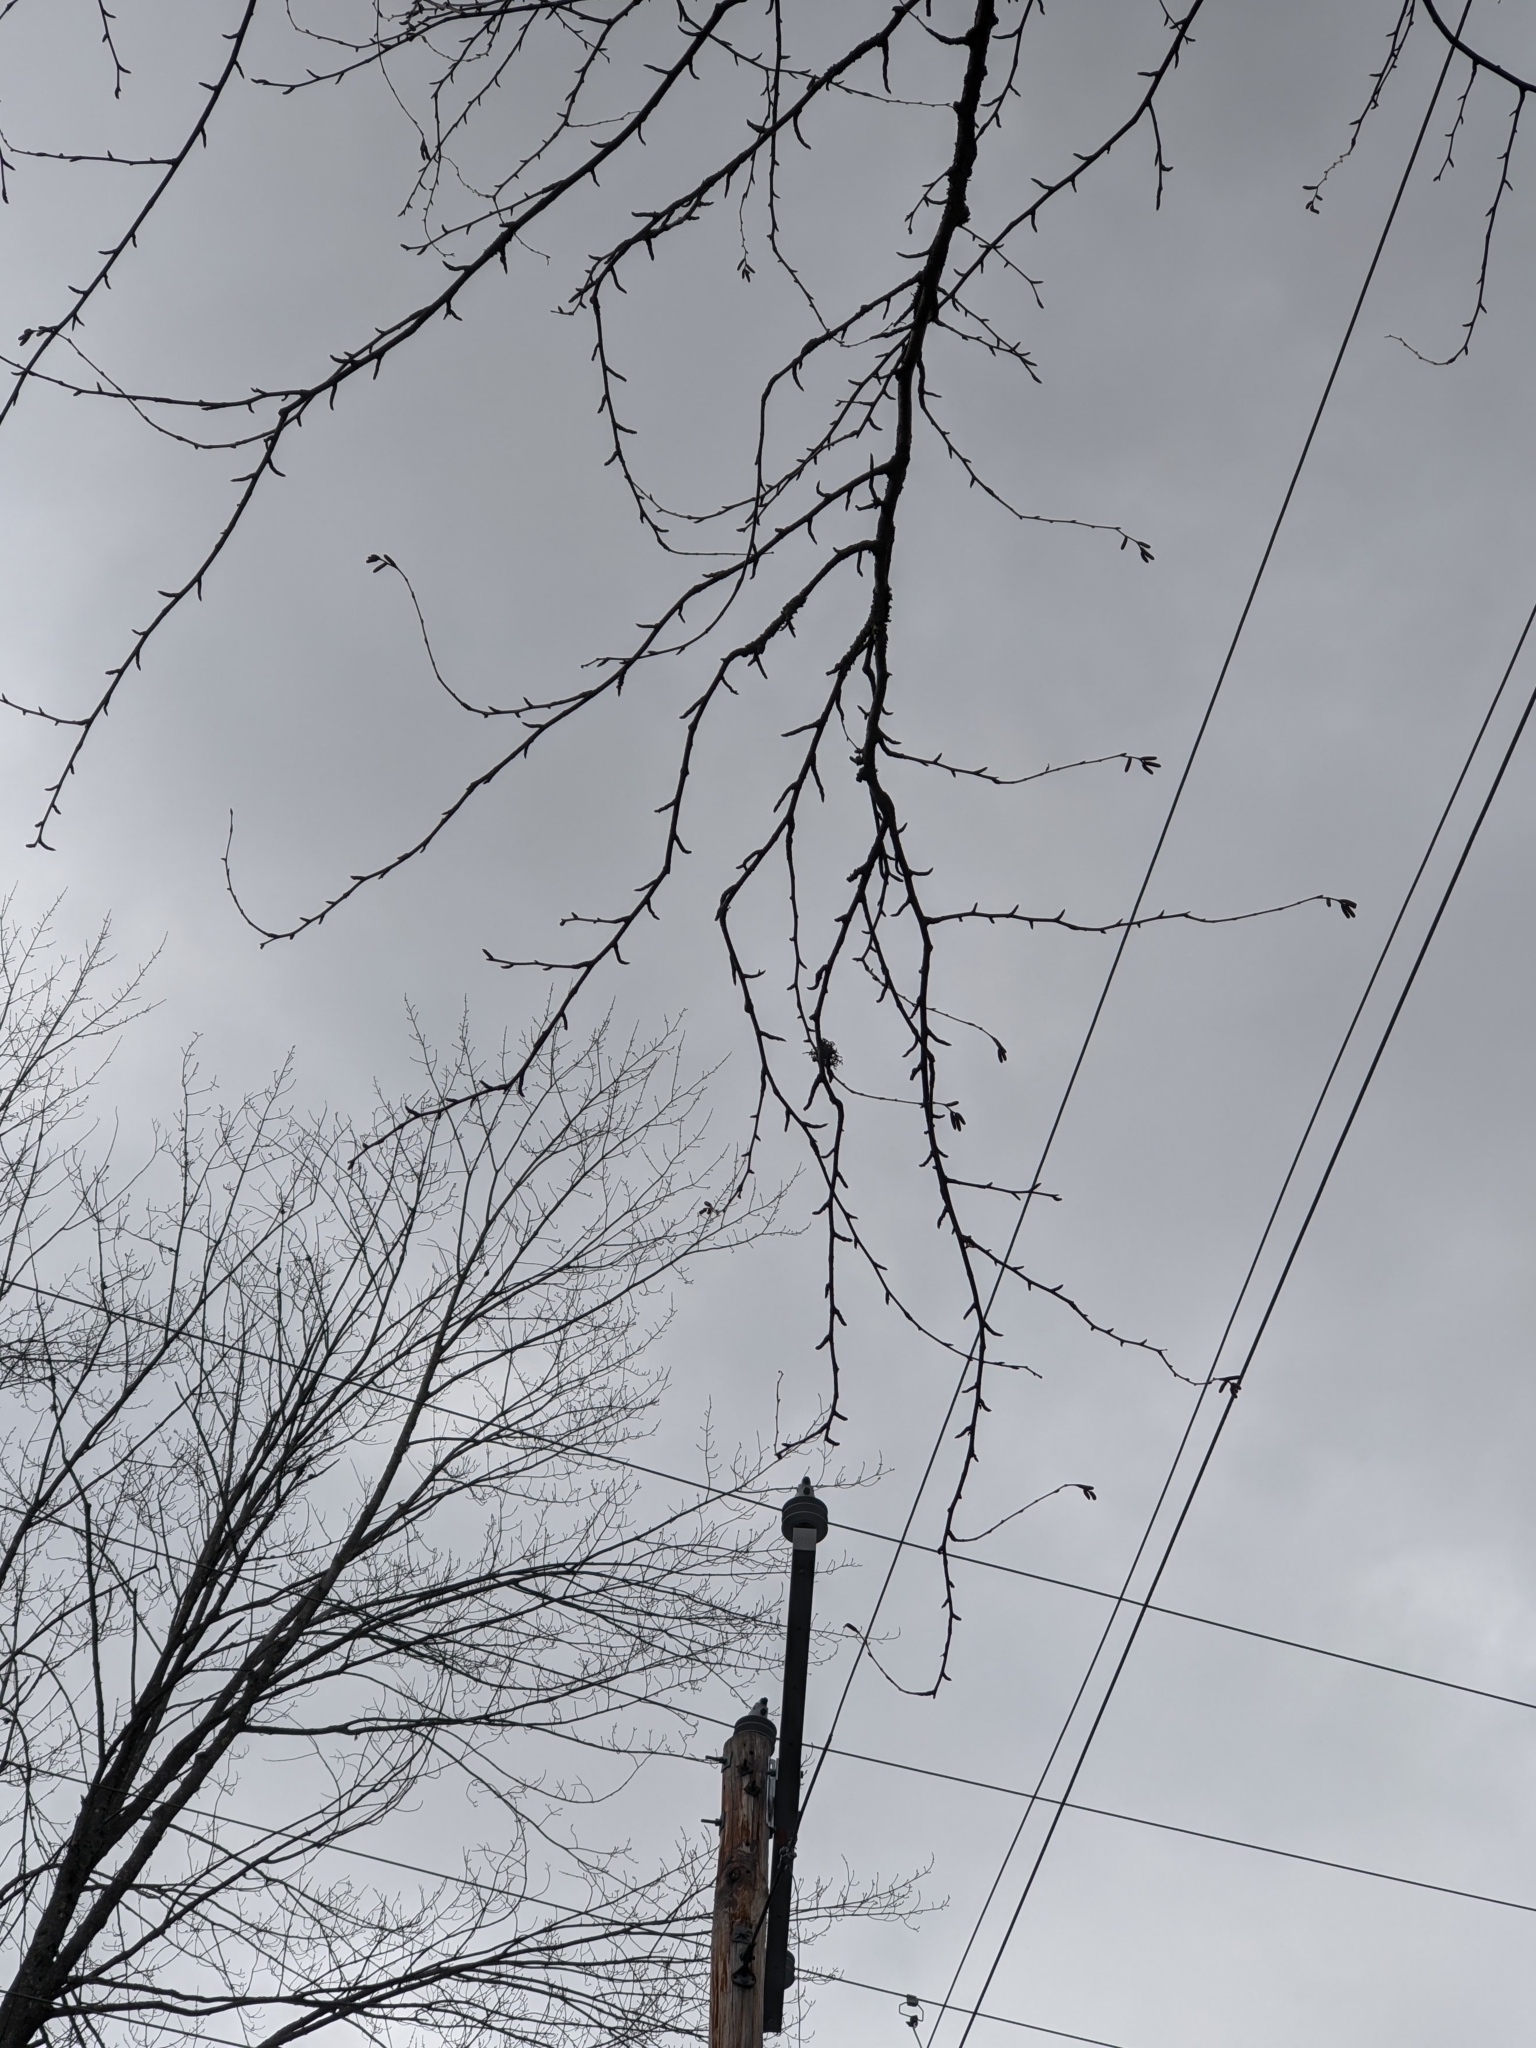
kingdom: Plantae
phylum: Tracheophyta
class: Magnoliopsida
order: Fagales
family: Betulaceae
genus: Betula
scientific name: Betula alleghaniensis
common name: Yellow birch
